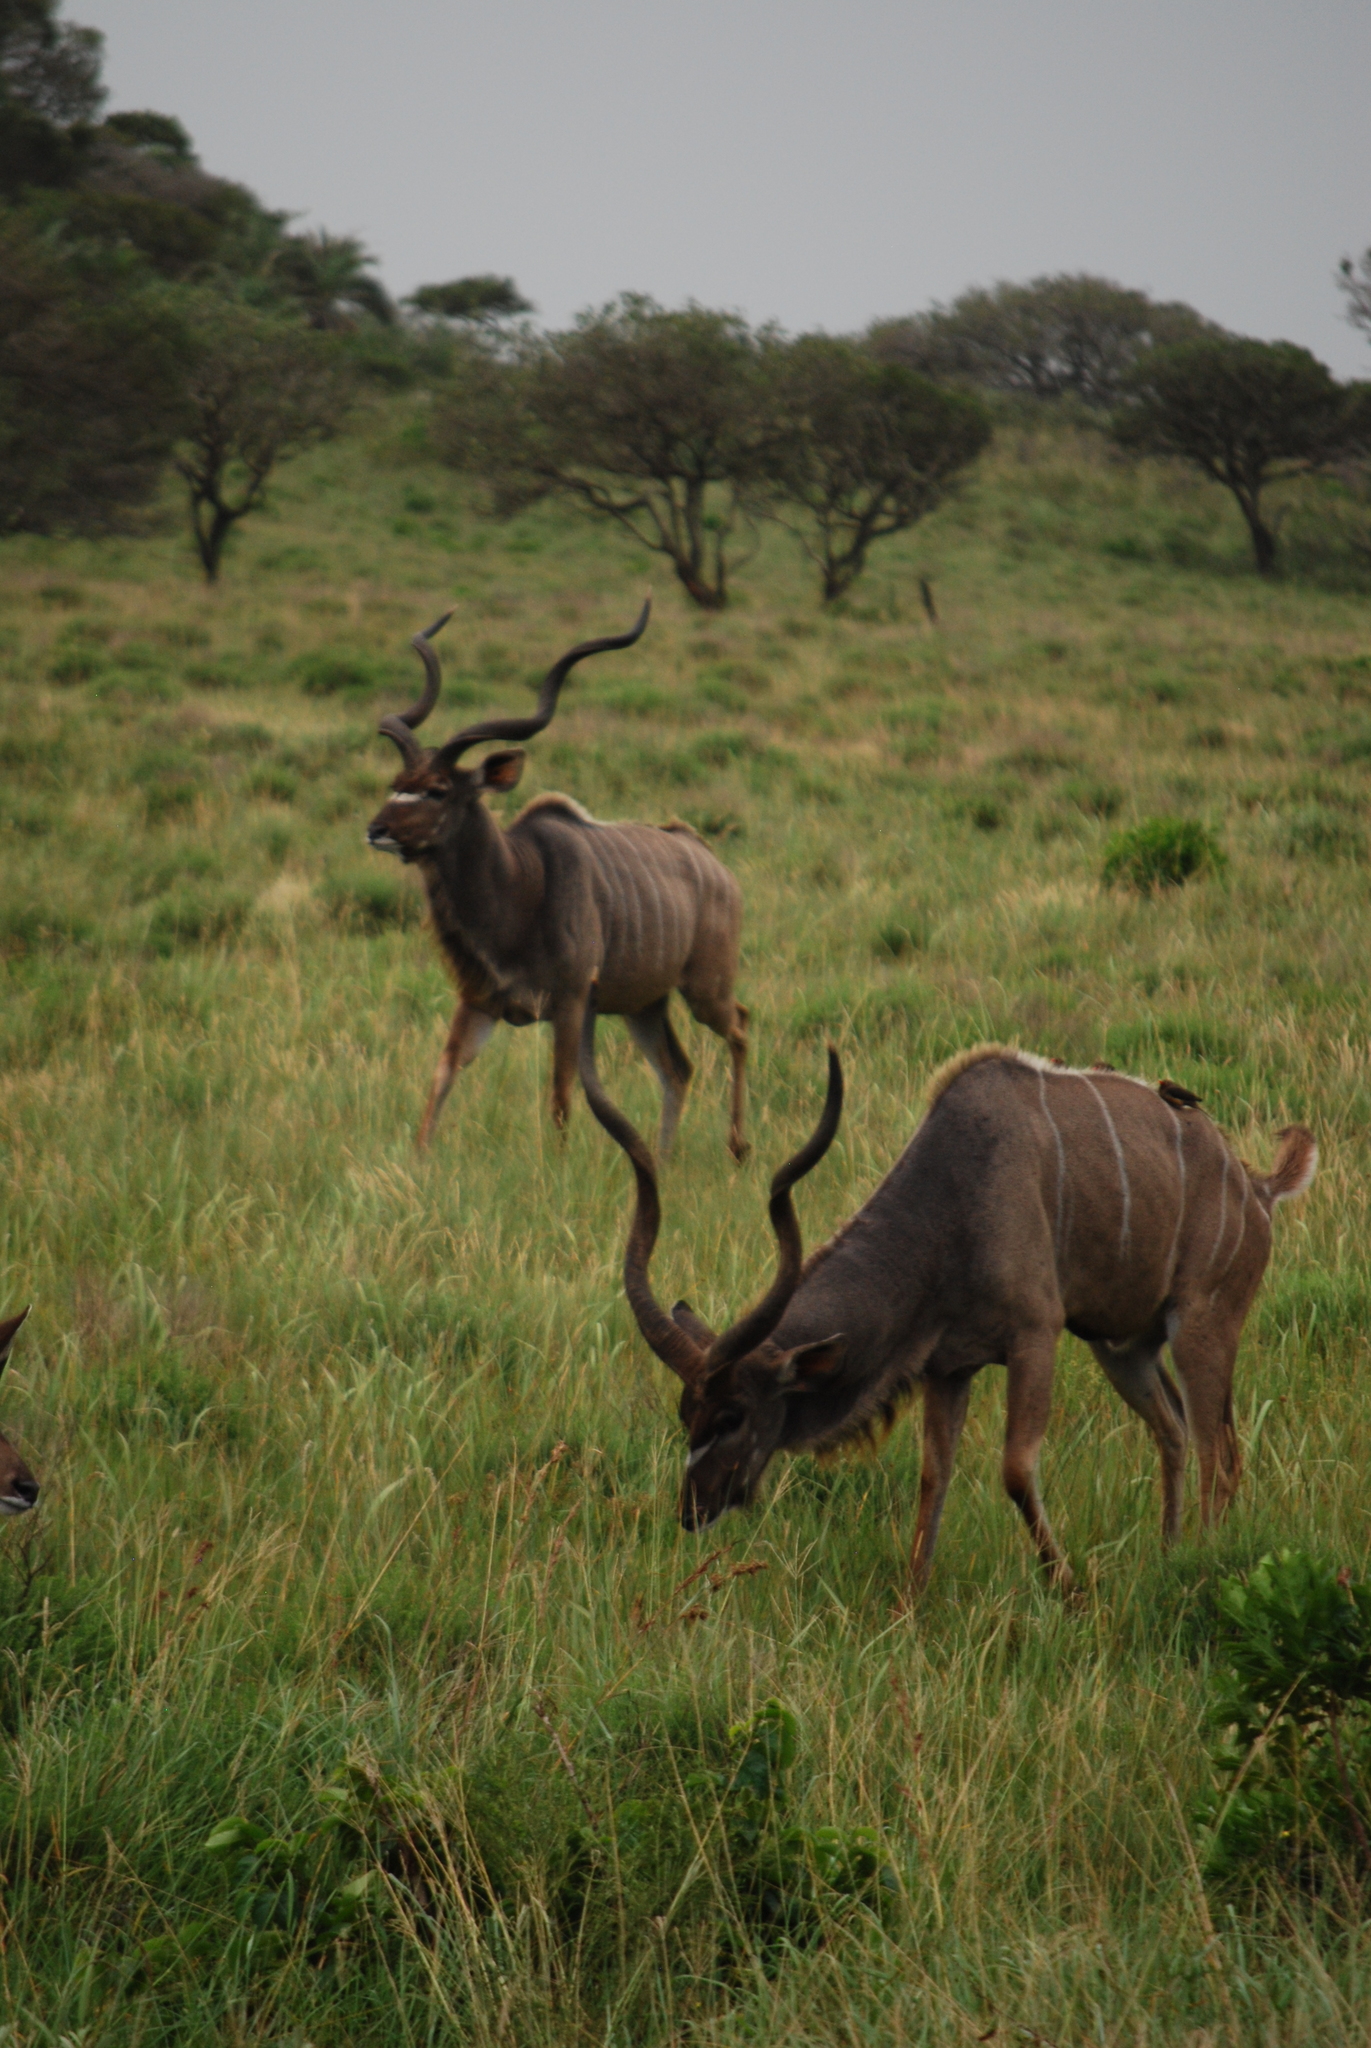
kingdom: Animalia
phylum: Chordata
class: Mammalia
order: Artiodactyla
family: Bovidae
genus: Tragelaphus
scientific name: Tragelaphus strepsiceros
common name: Greater kudu
